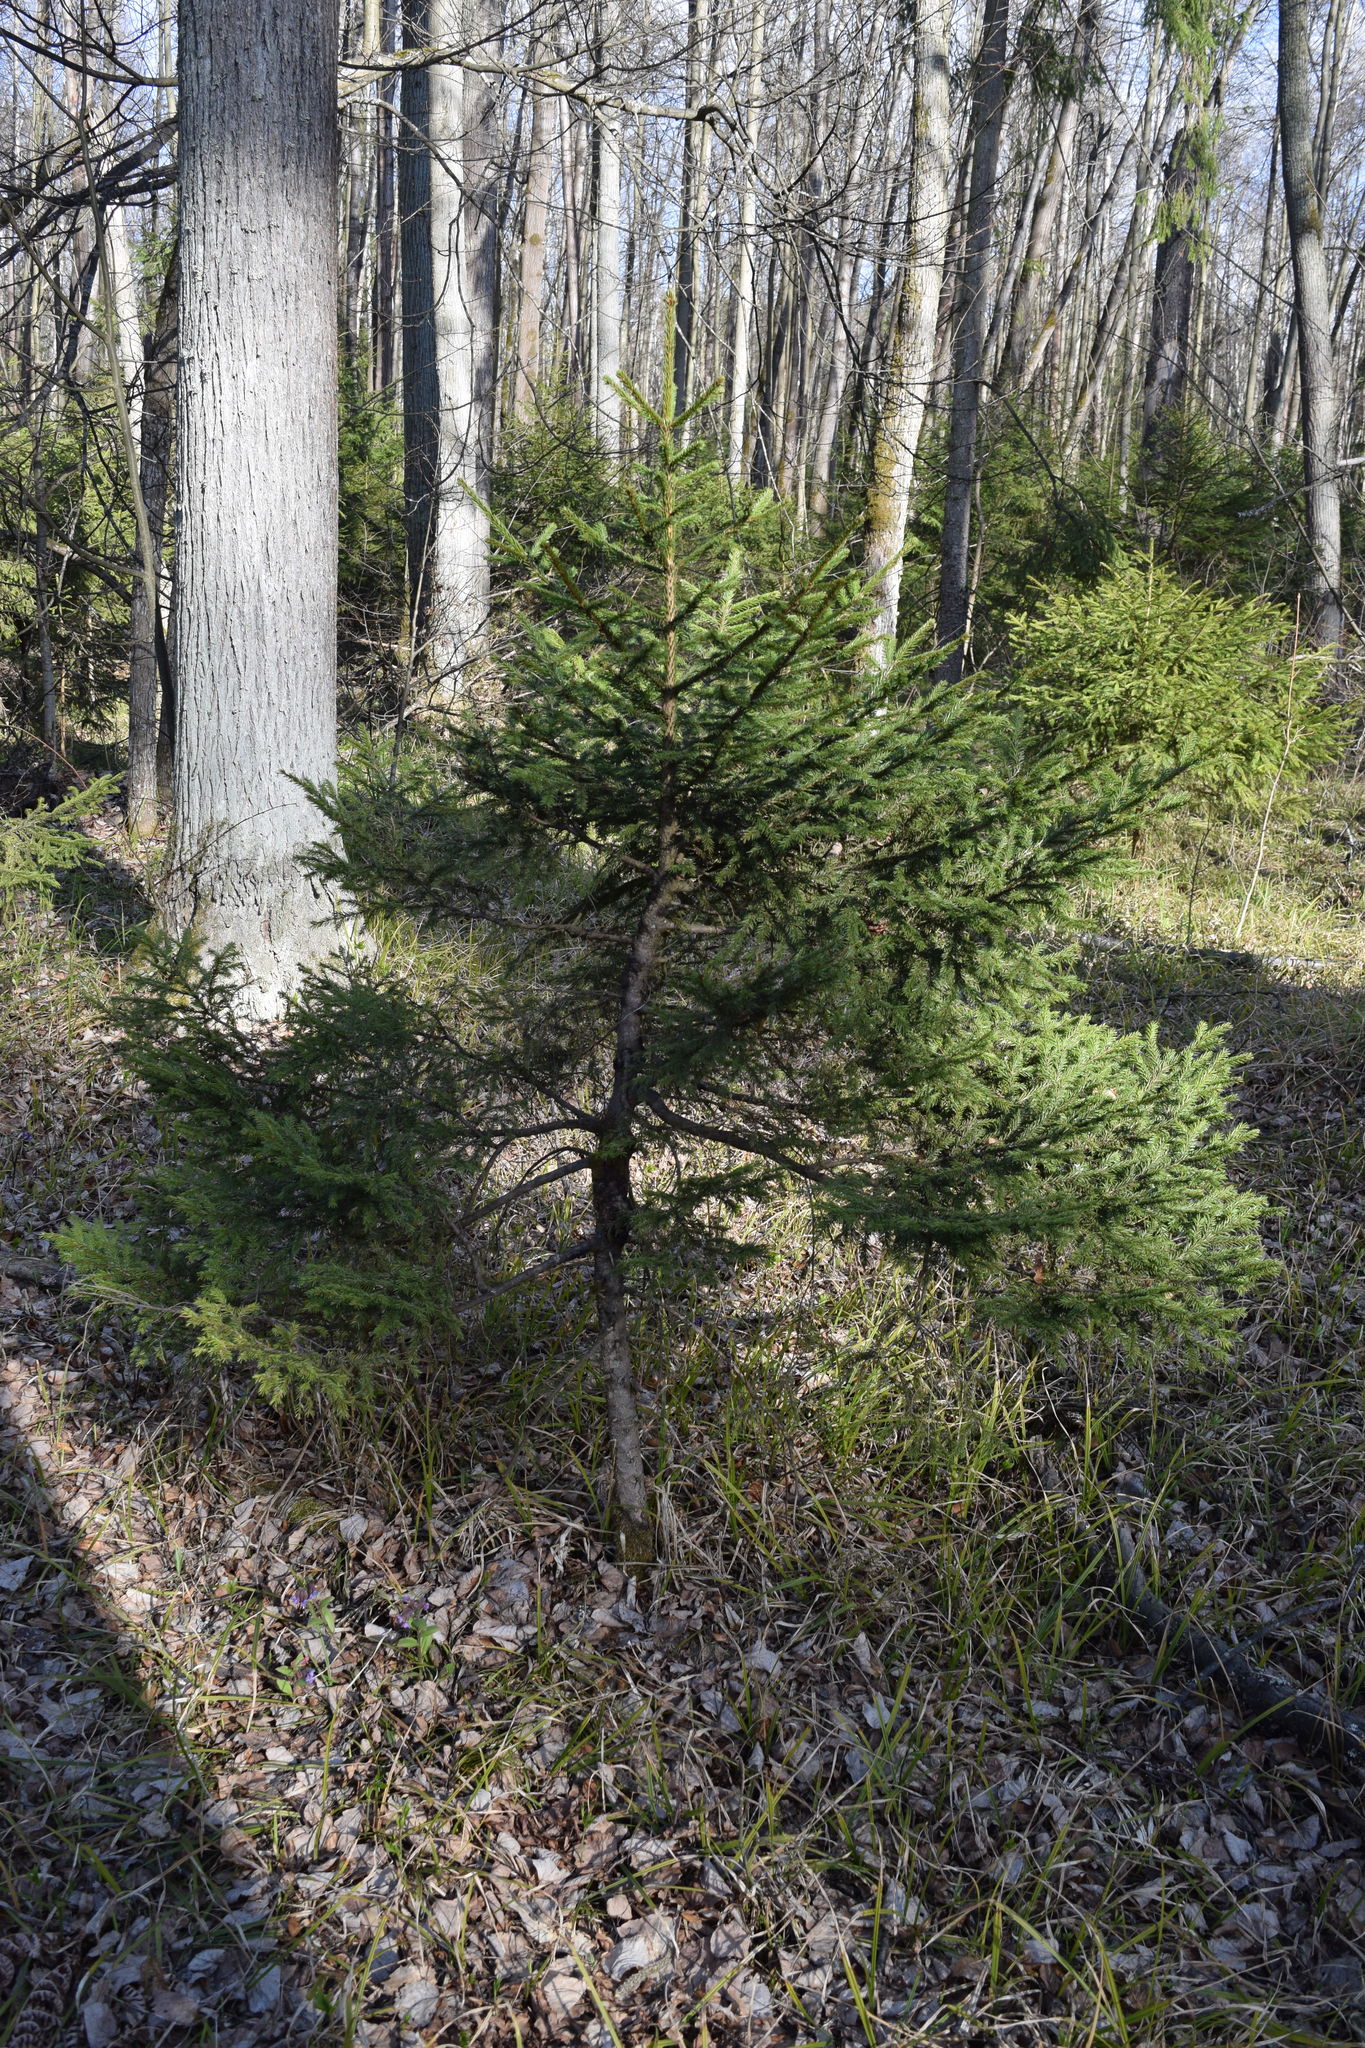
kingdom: Plantae
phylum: Tracheophyta
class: Pinopsida
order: Pinales
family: Pinaceae
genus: Picea
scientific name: Picea abies
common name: Norway spruce
